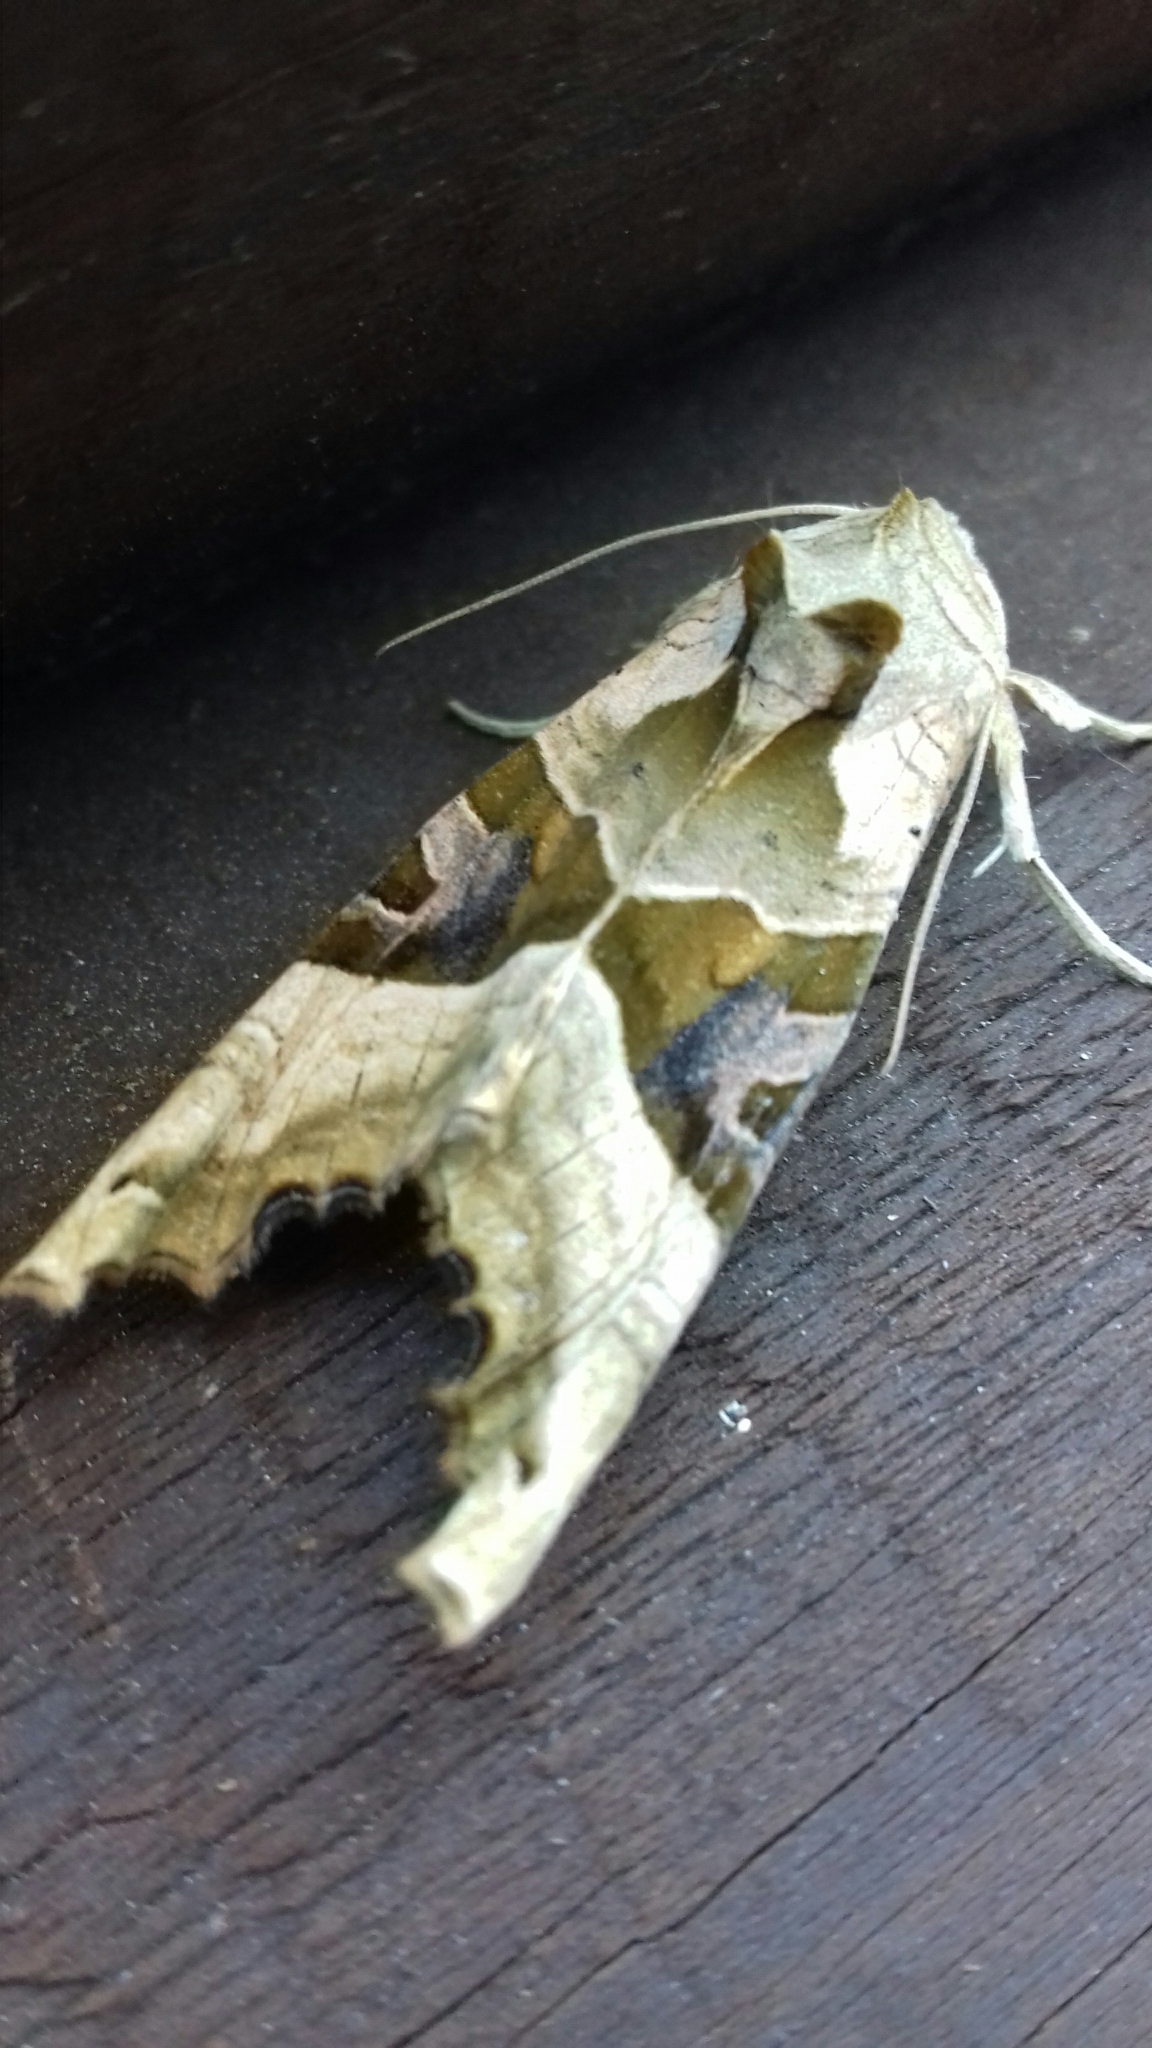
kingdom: Animalia
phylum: Arthropoda
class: Insecta
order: Lepidoptera
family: Noctuidae
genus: Phlogophora
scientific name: Phlogophora meticulosa
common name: Angle shades
